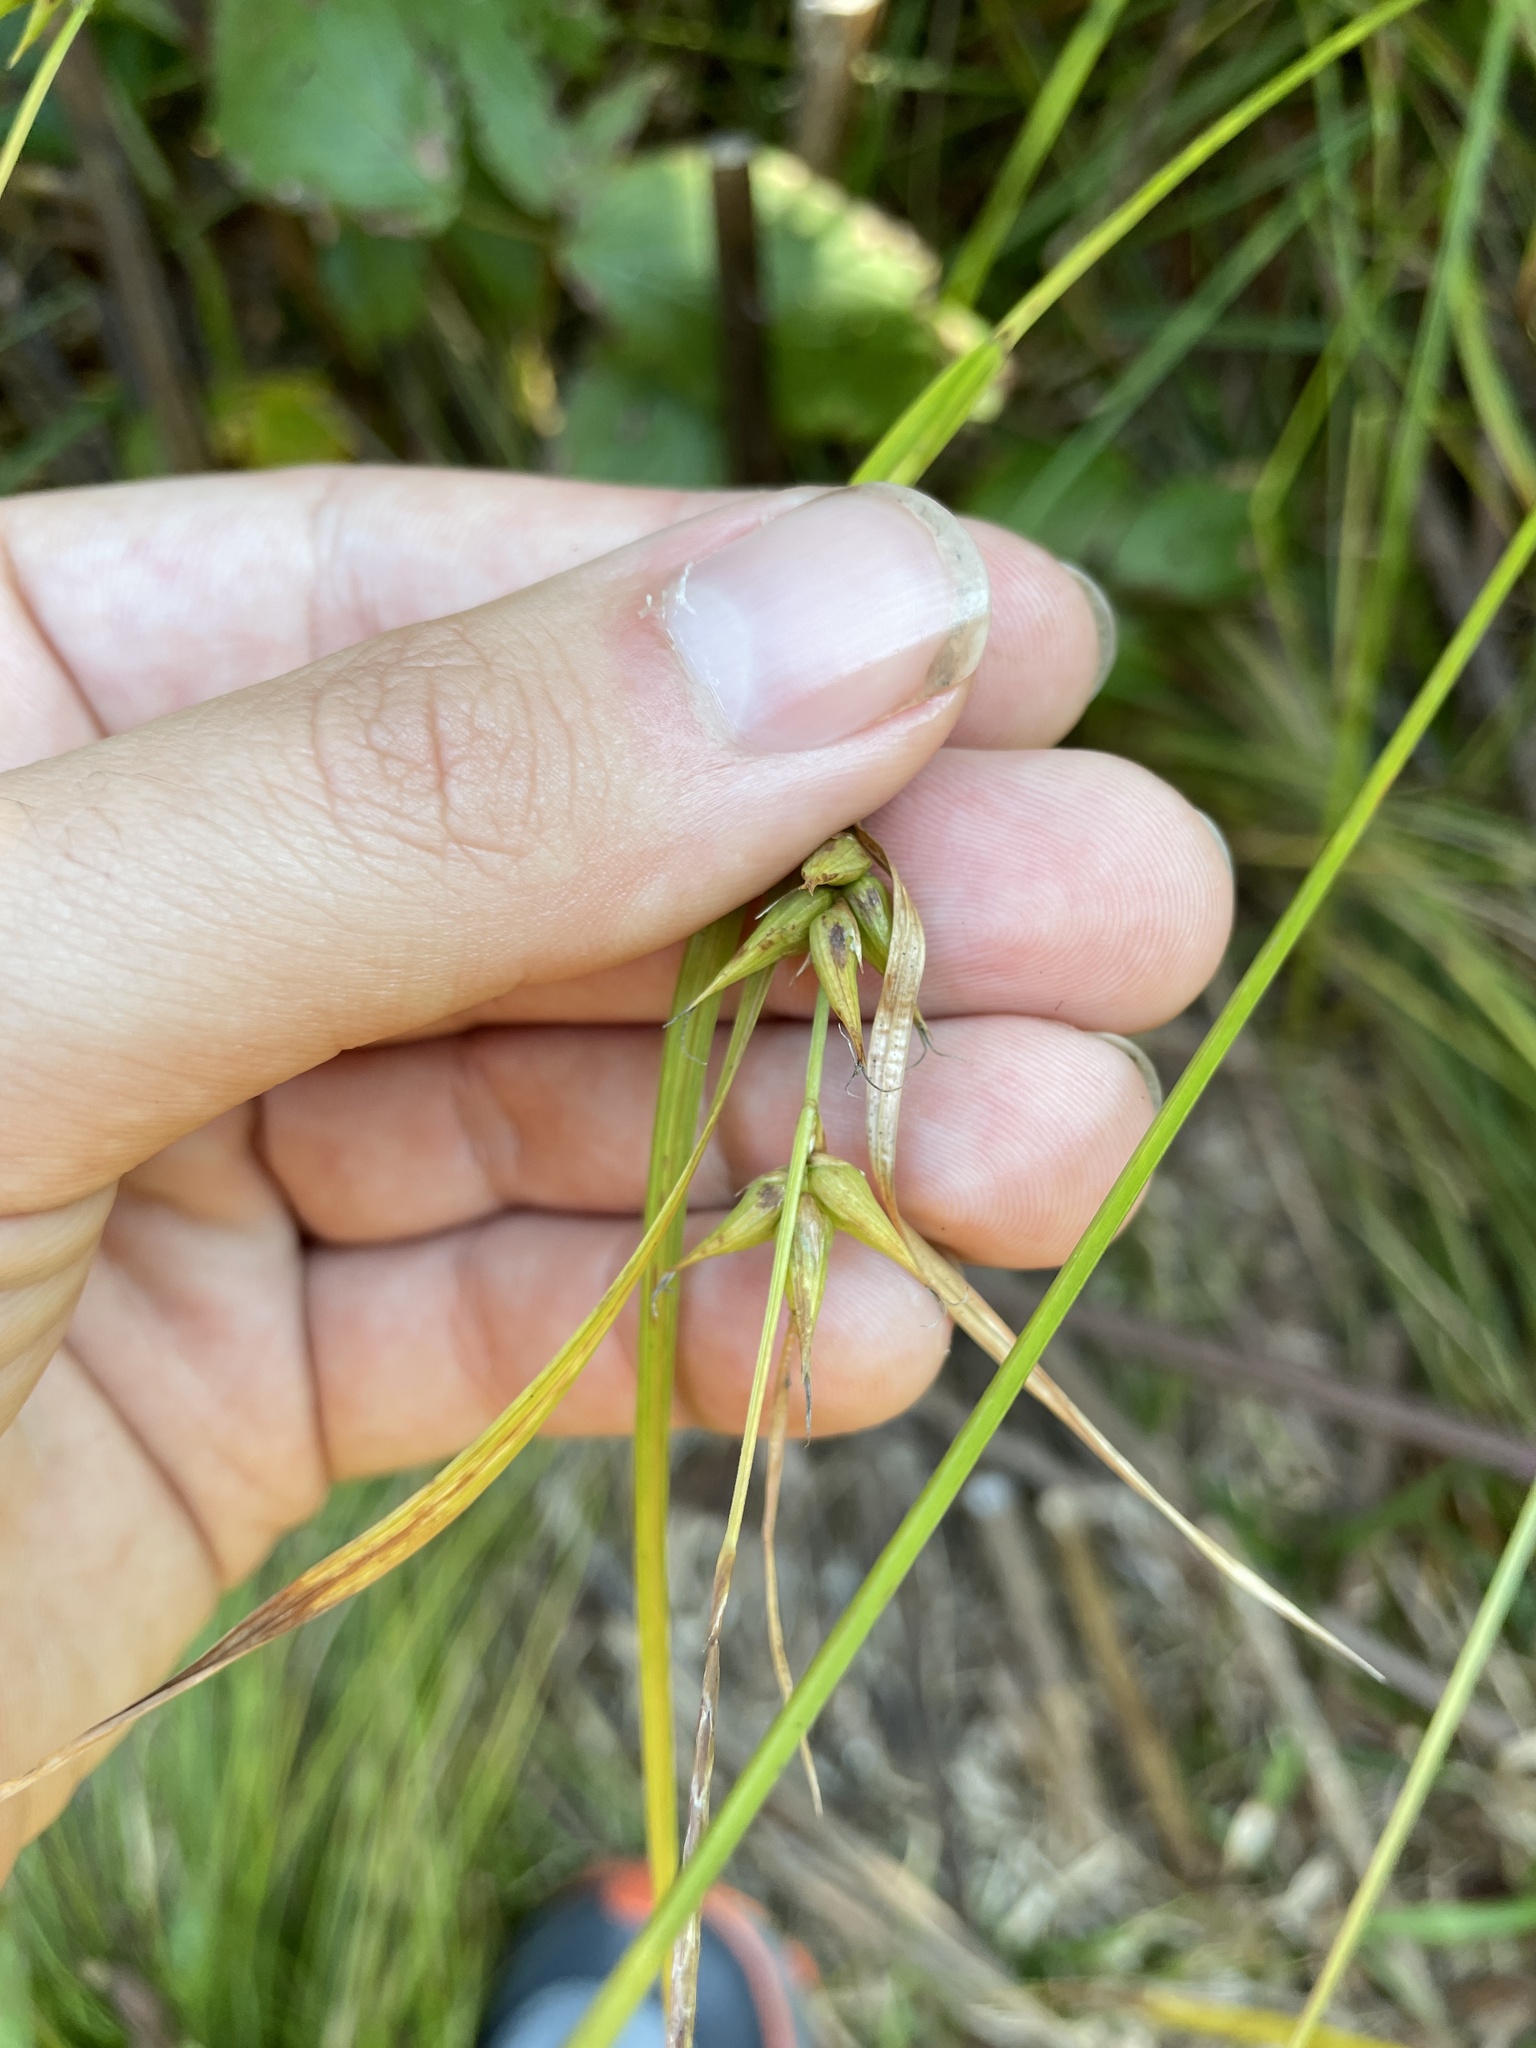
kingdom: Plantae
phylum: Tracheophyta
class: Liliopsida
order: Poales
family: Cyperaceae
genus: Carex
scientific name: Carex intumescens
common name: Greater bladder sedge
